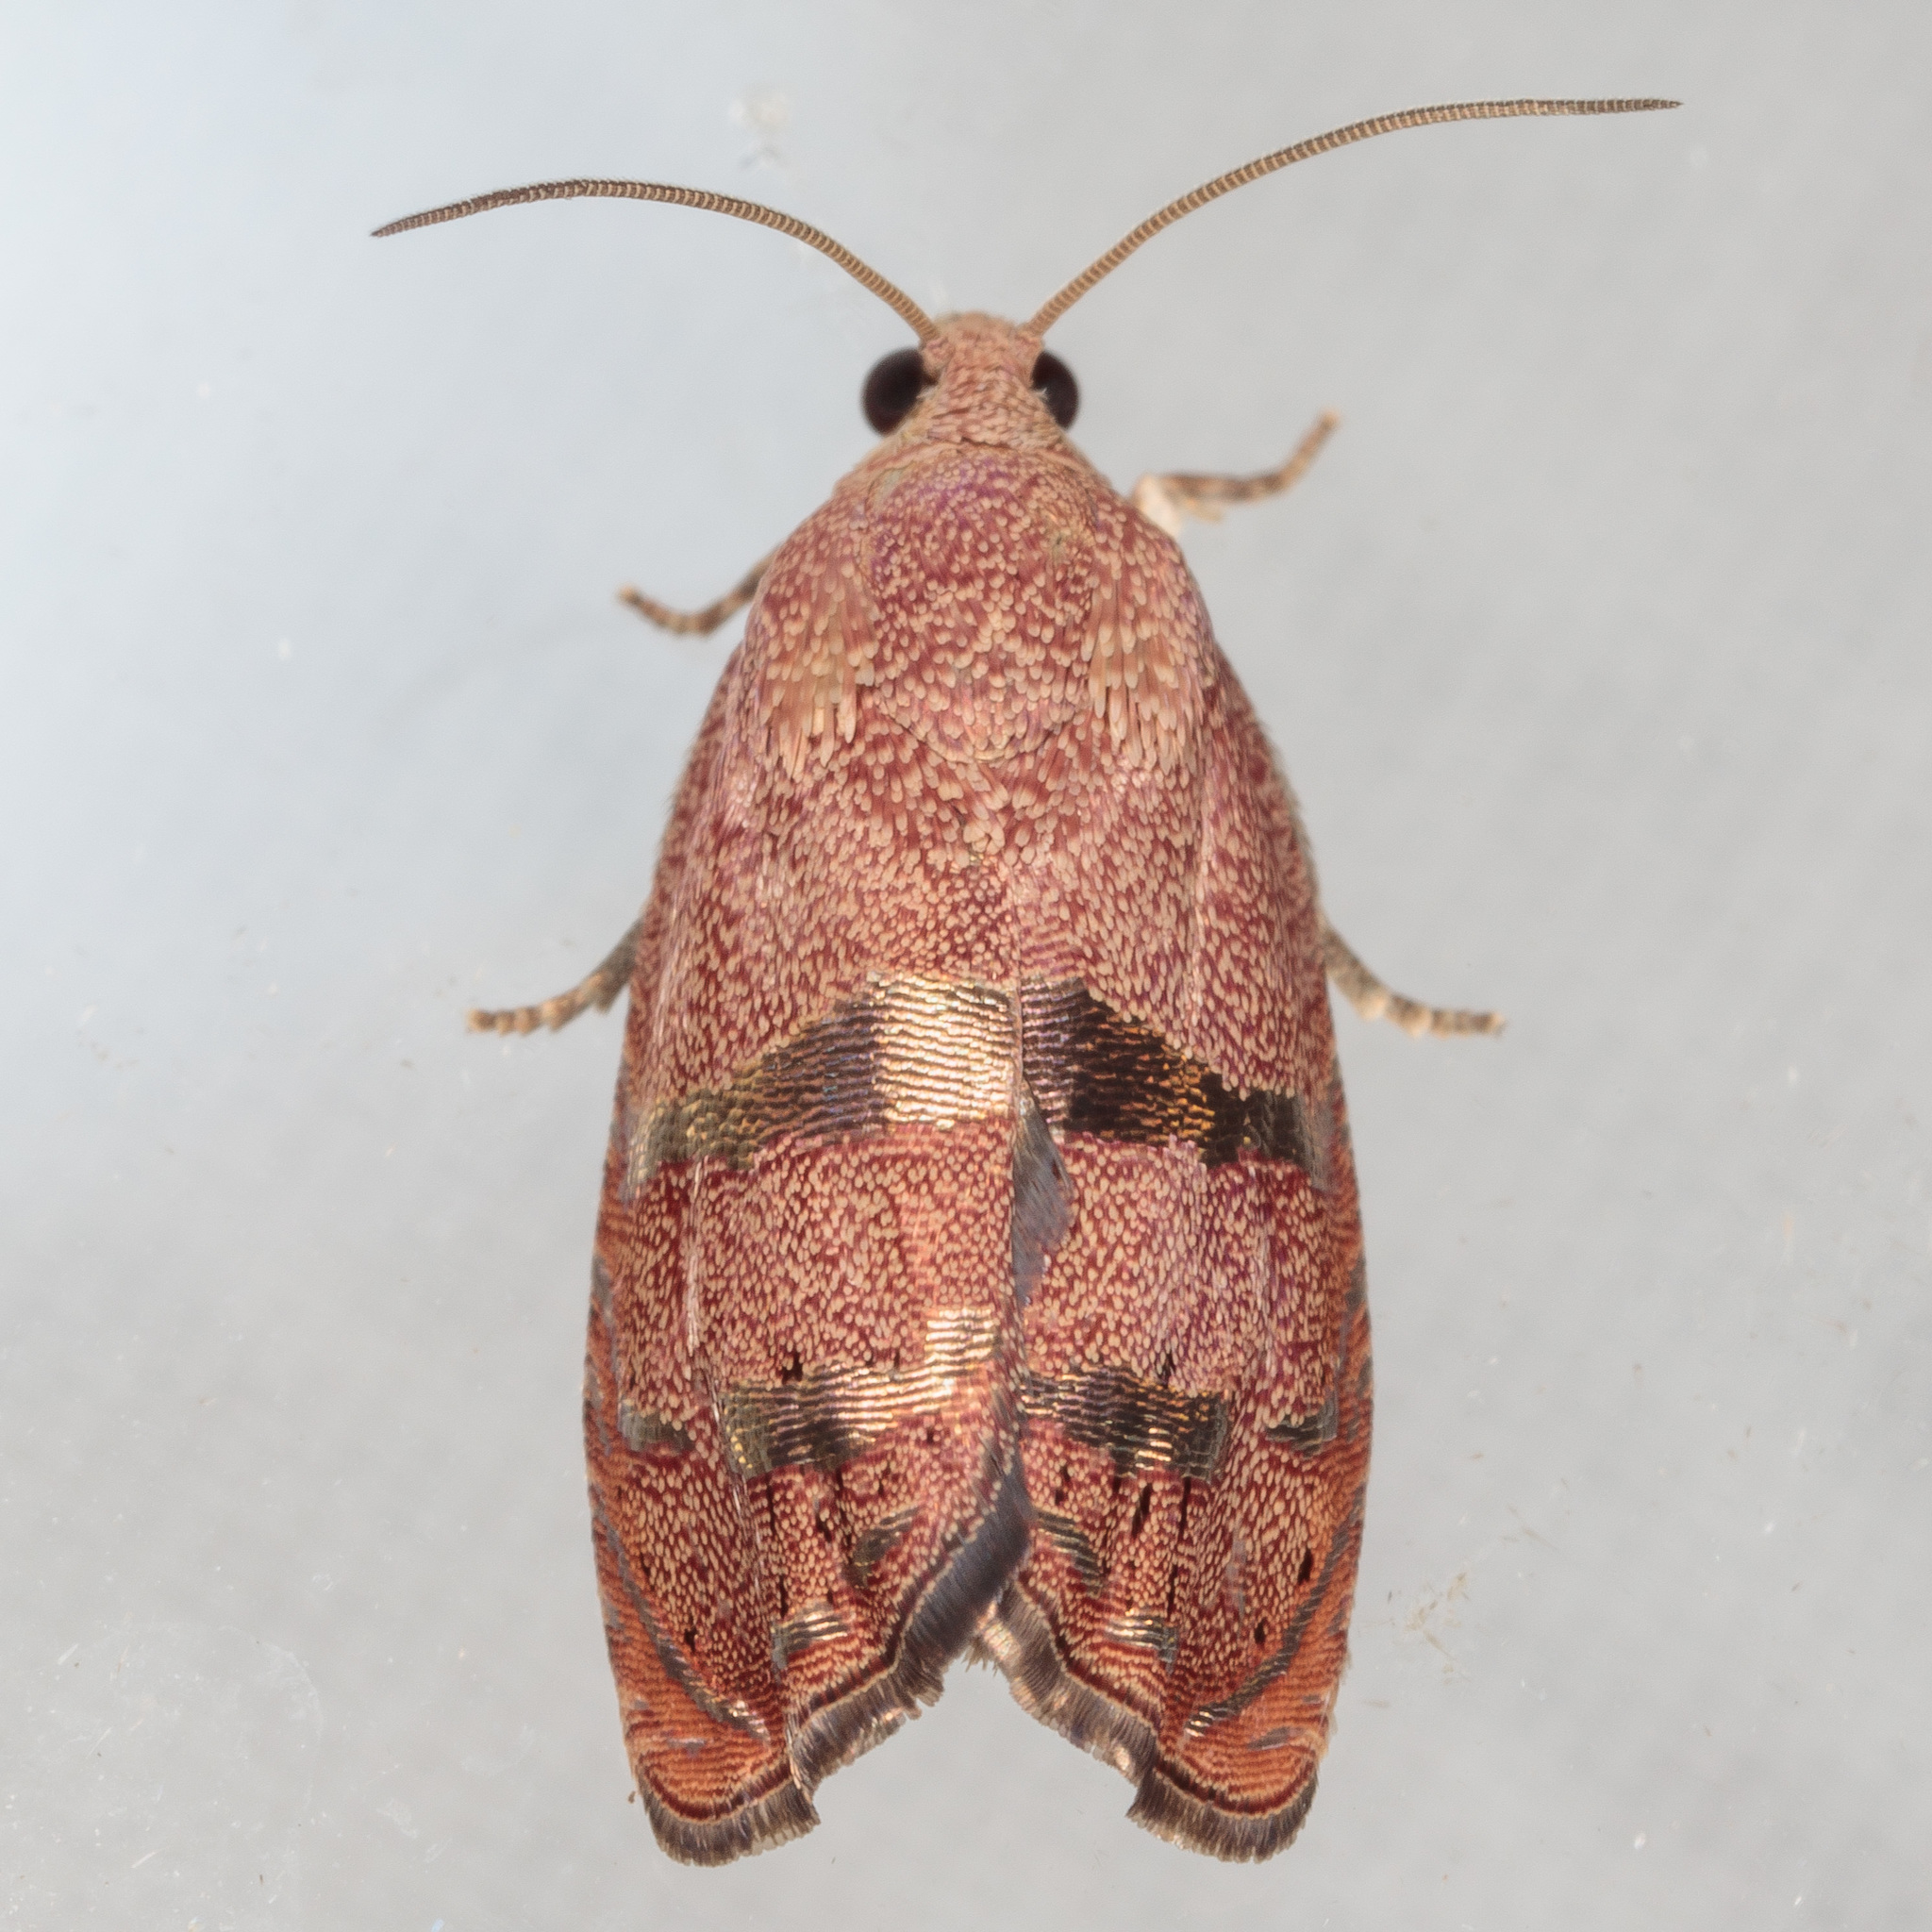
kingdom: Animalia
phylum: Arthropoda
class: Insecta
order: Lepidoptera
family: Tortricidae
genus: Cydia
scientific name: Cydia latiferreana
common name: Filbertworm moth
